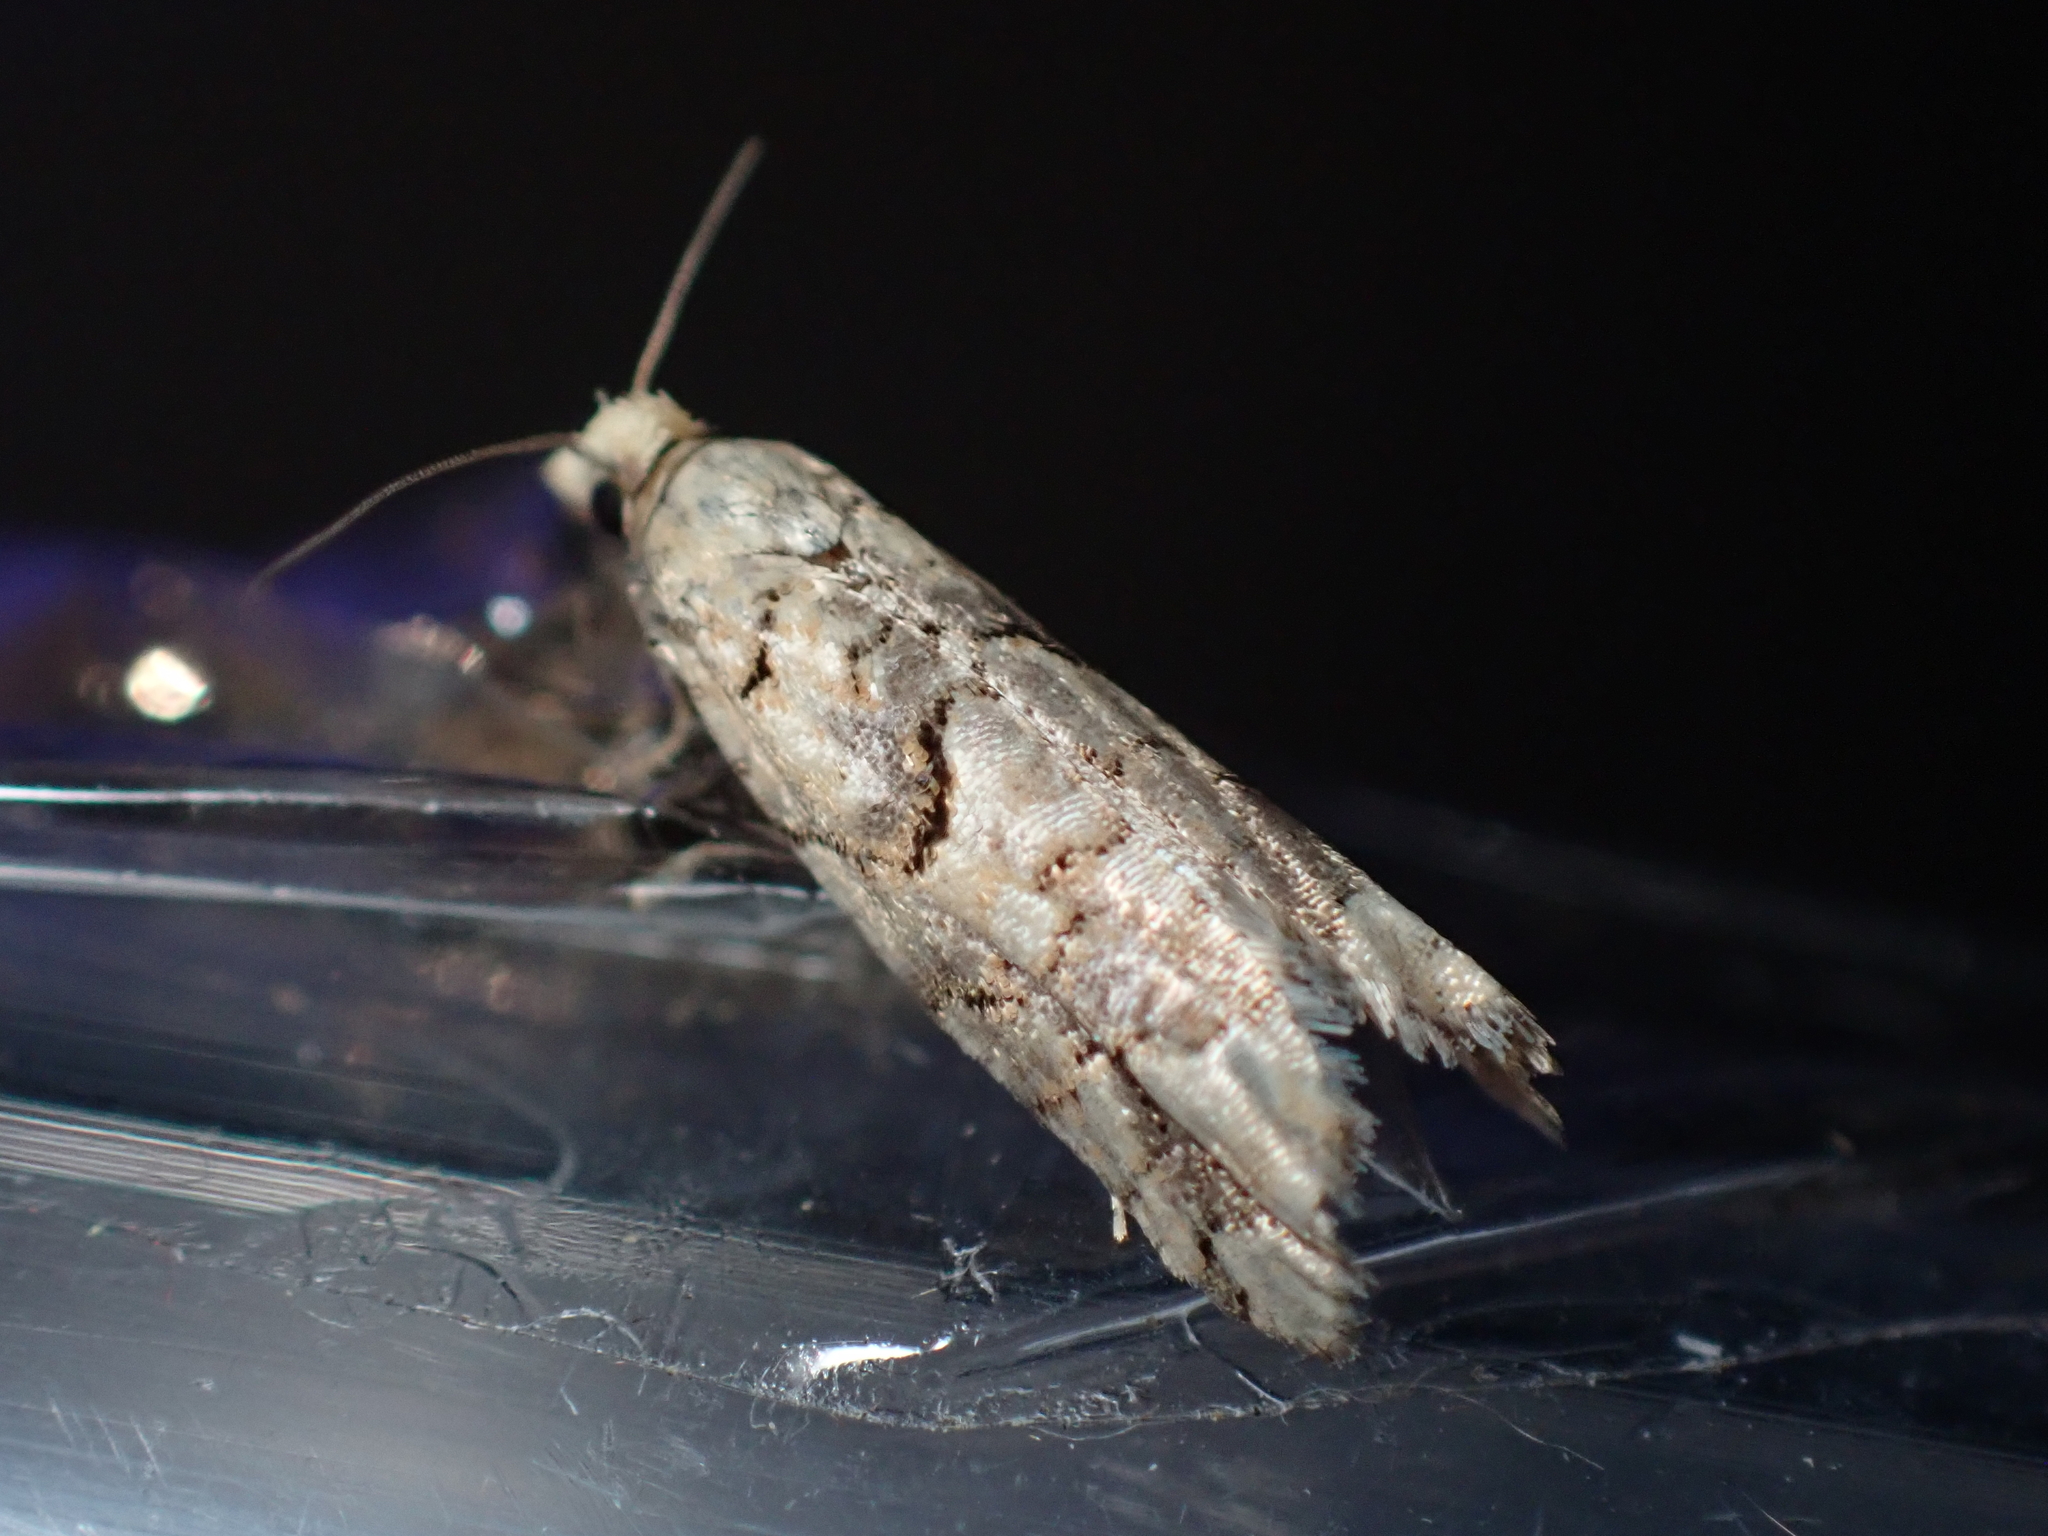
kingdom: Animalia
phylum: Arthropoda
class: Insecta
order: Lepidoptera
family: Tortricidae
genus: Epinotia
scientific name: Epinotia subviridis
